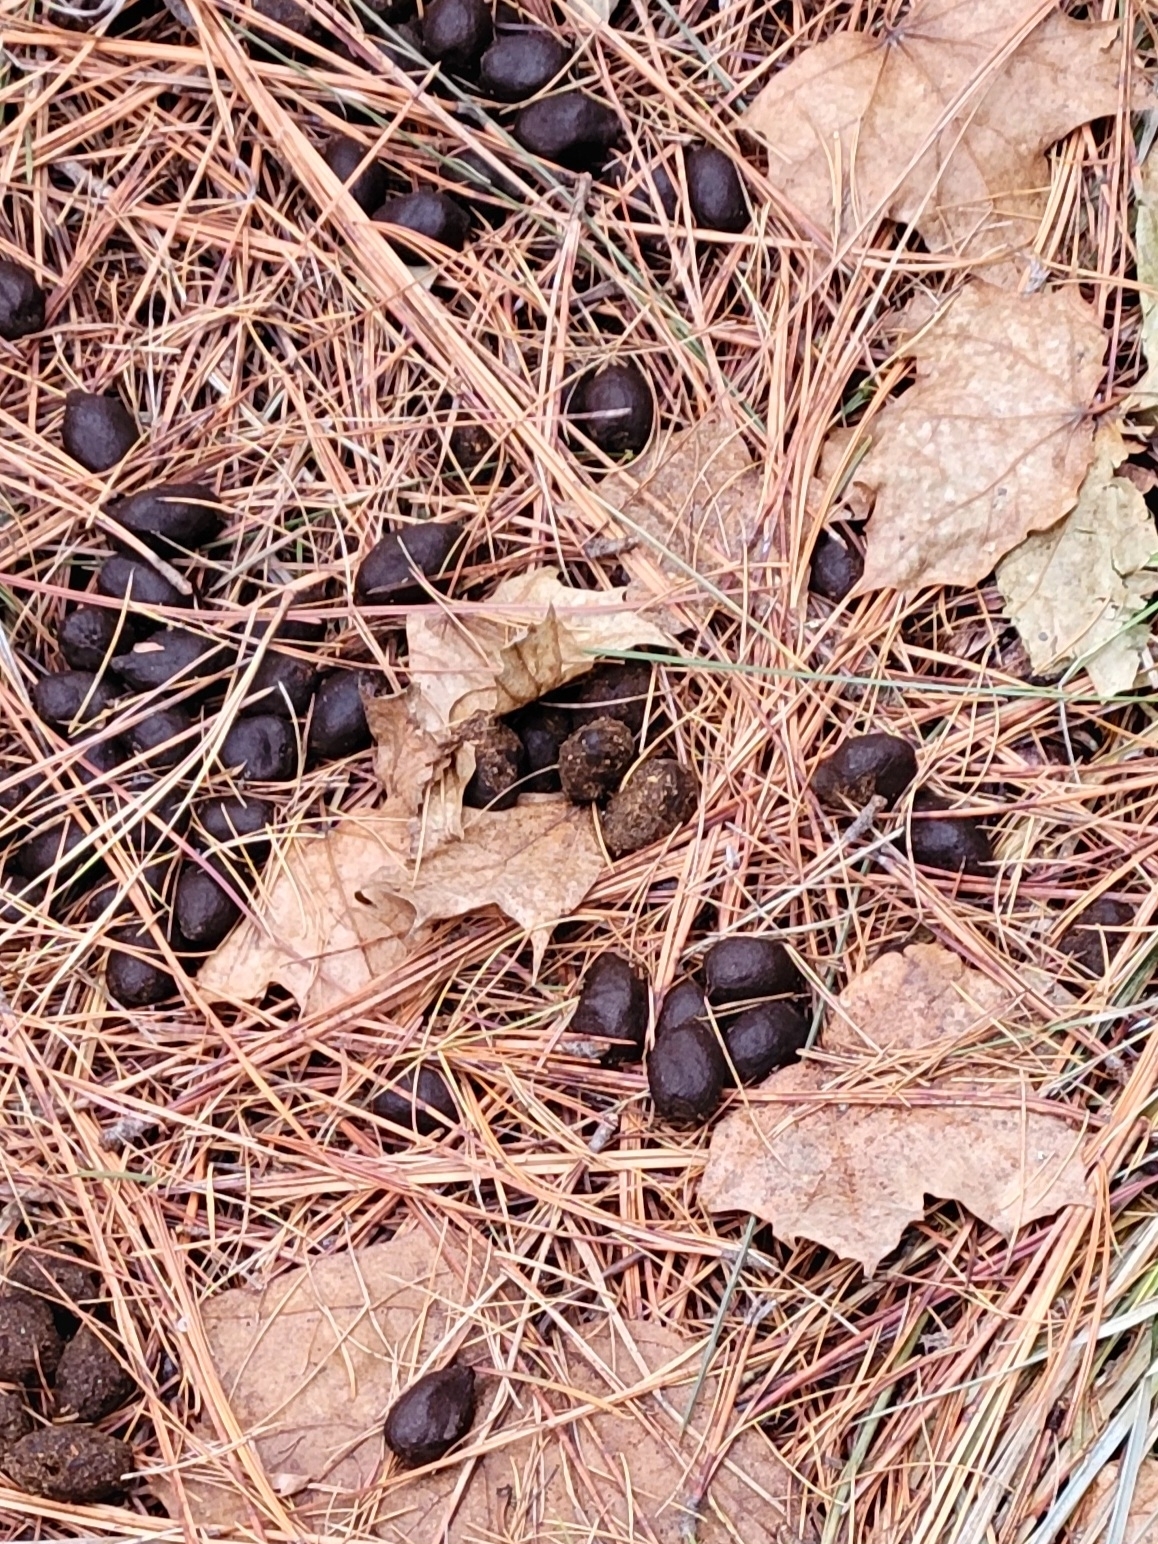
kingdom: Animalia
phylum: Chordata
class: Mammalia
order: Artiodactyla
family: Cervidae
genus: Alces
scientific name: Alces alces
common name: Moose
